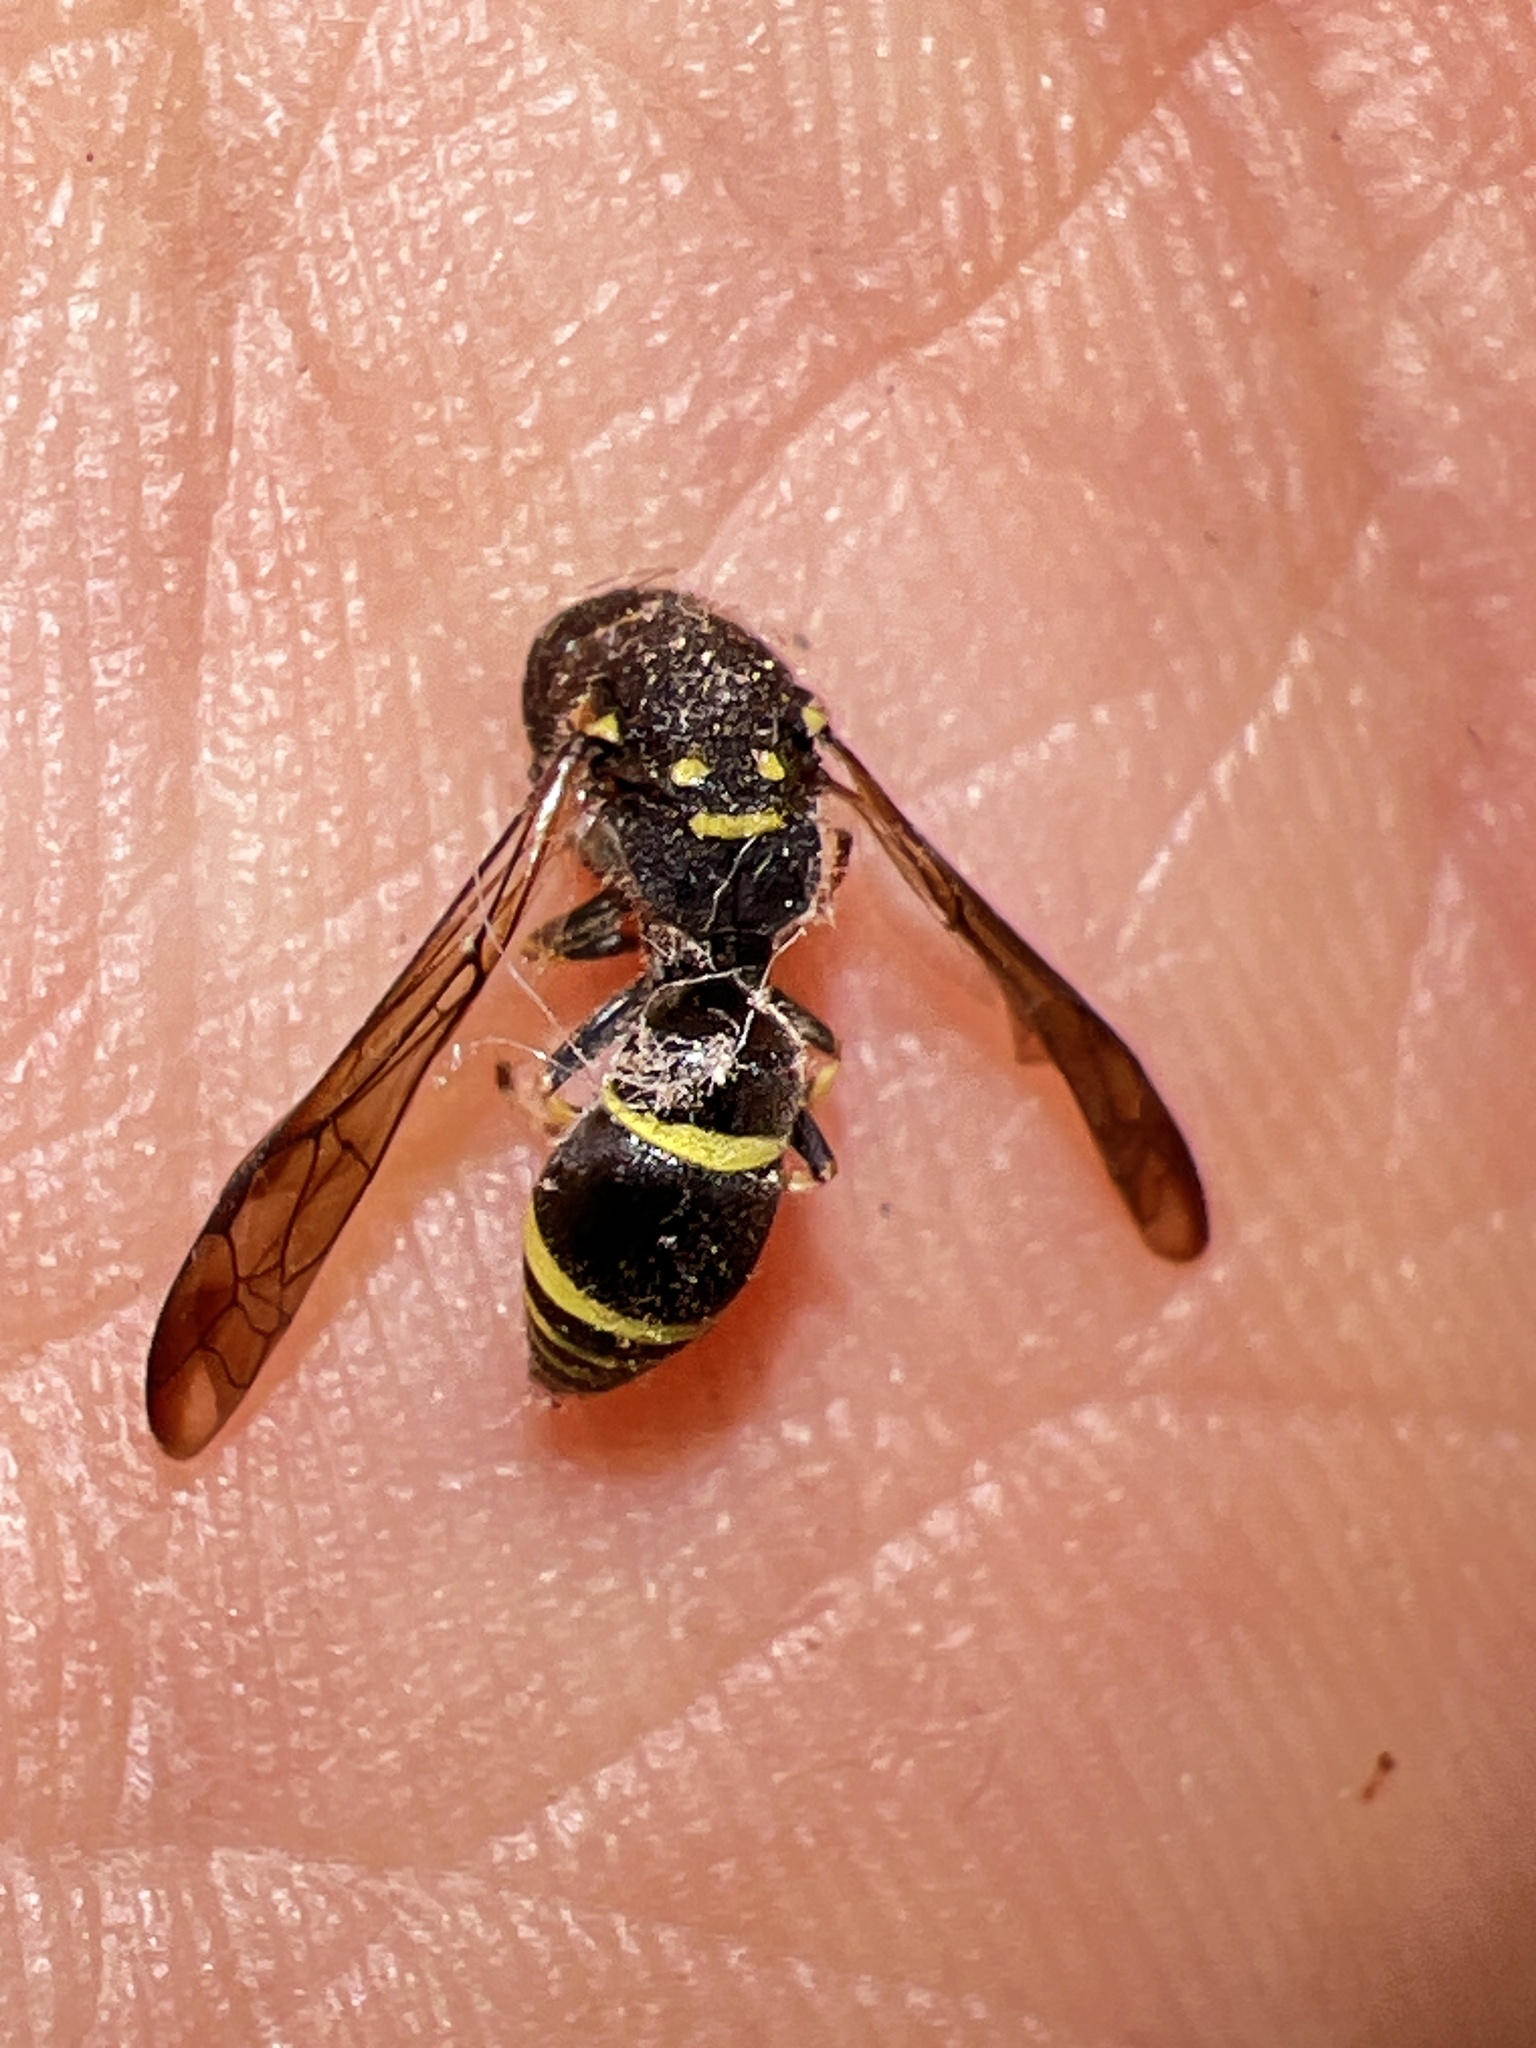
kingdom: Animalia
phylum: Arthropoda
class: Insecta
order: Hymenoptera
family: Vespidae
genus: Ancistrocerus
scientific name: Ancistrocerus adiabatus
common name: Bramble mason wasp
